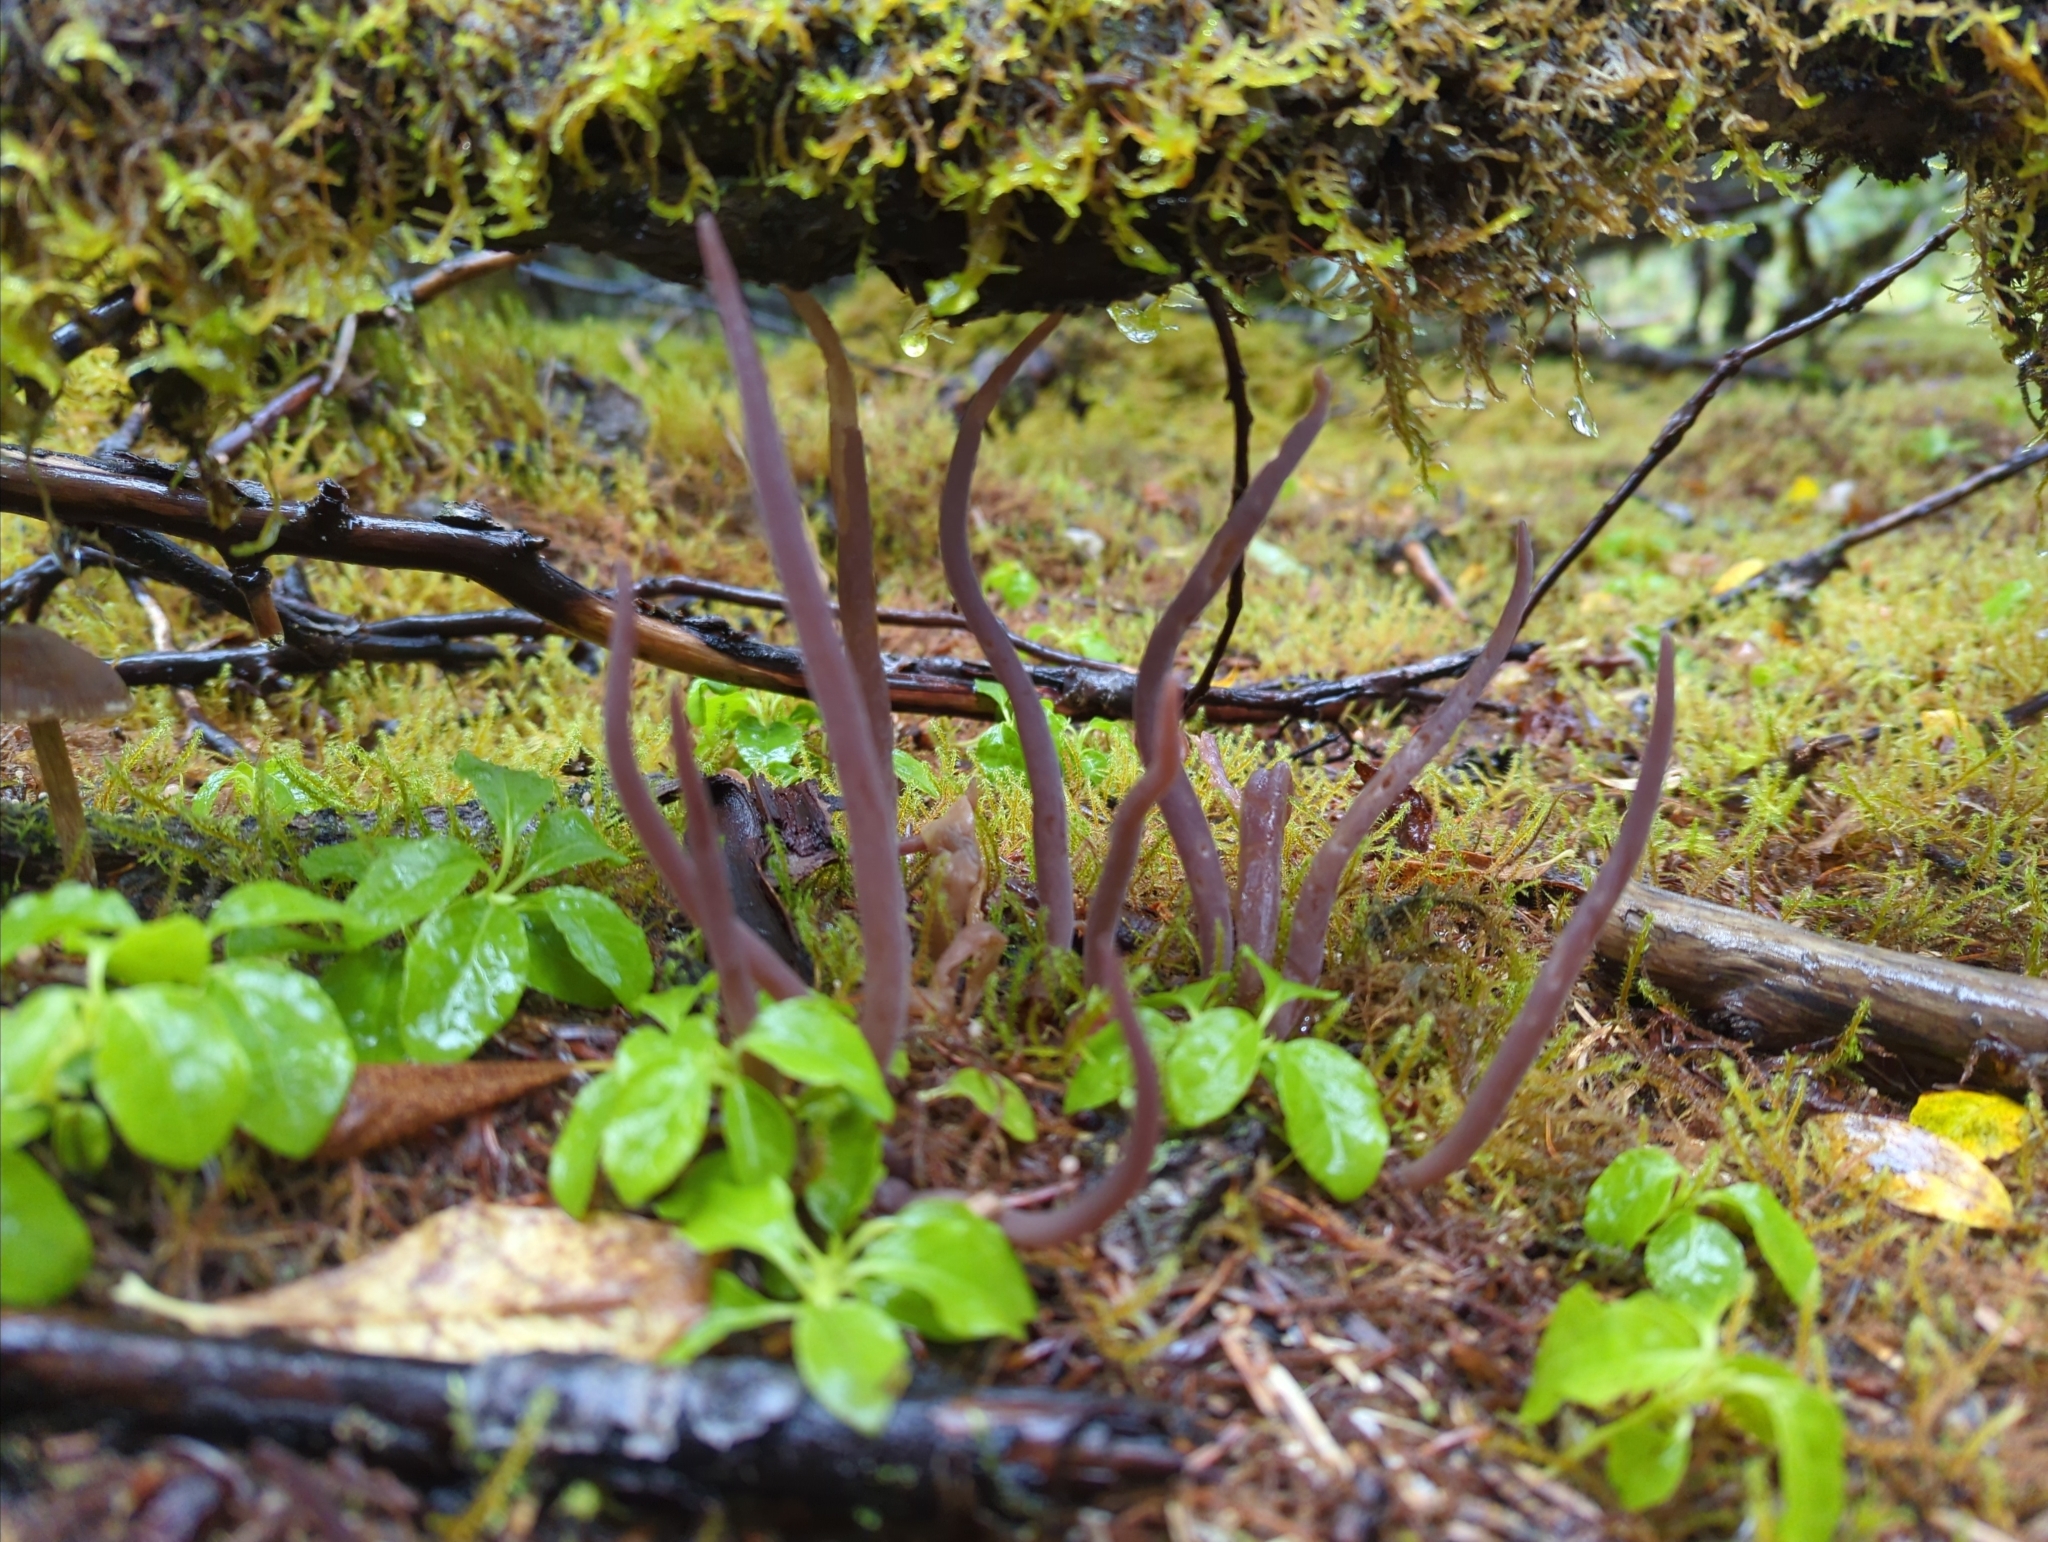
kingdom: Fungi
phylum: Basidiomycota
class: Agaricomycetes
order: Hymenochaetales
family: Rickenellaceae
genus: Alloclavaria
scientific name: Alloclavaria purpurea
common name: Purple spindles
